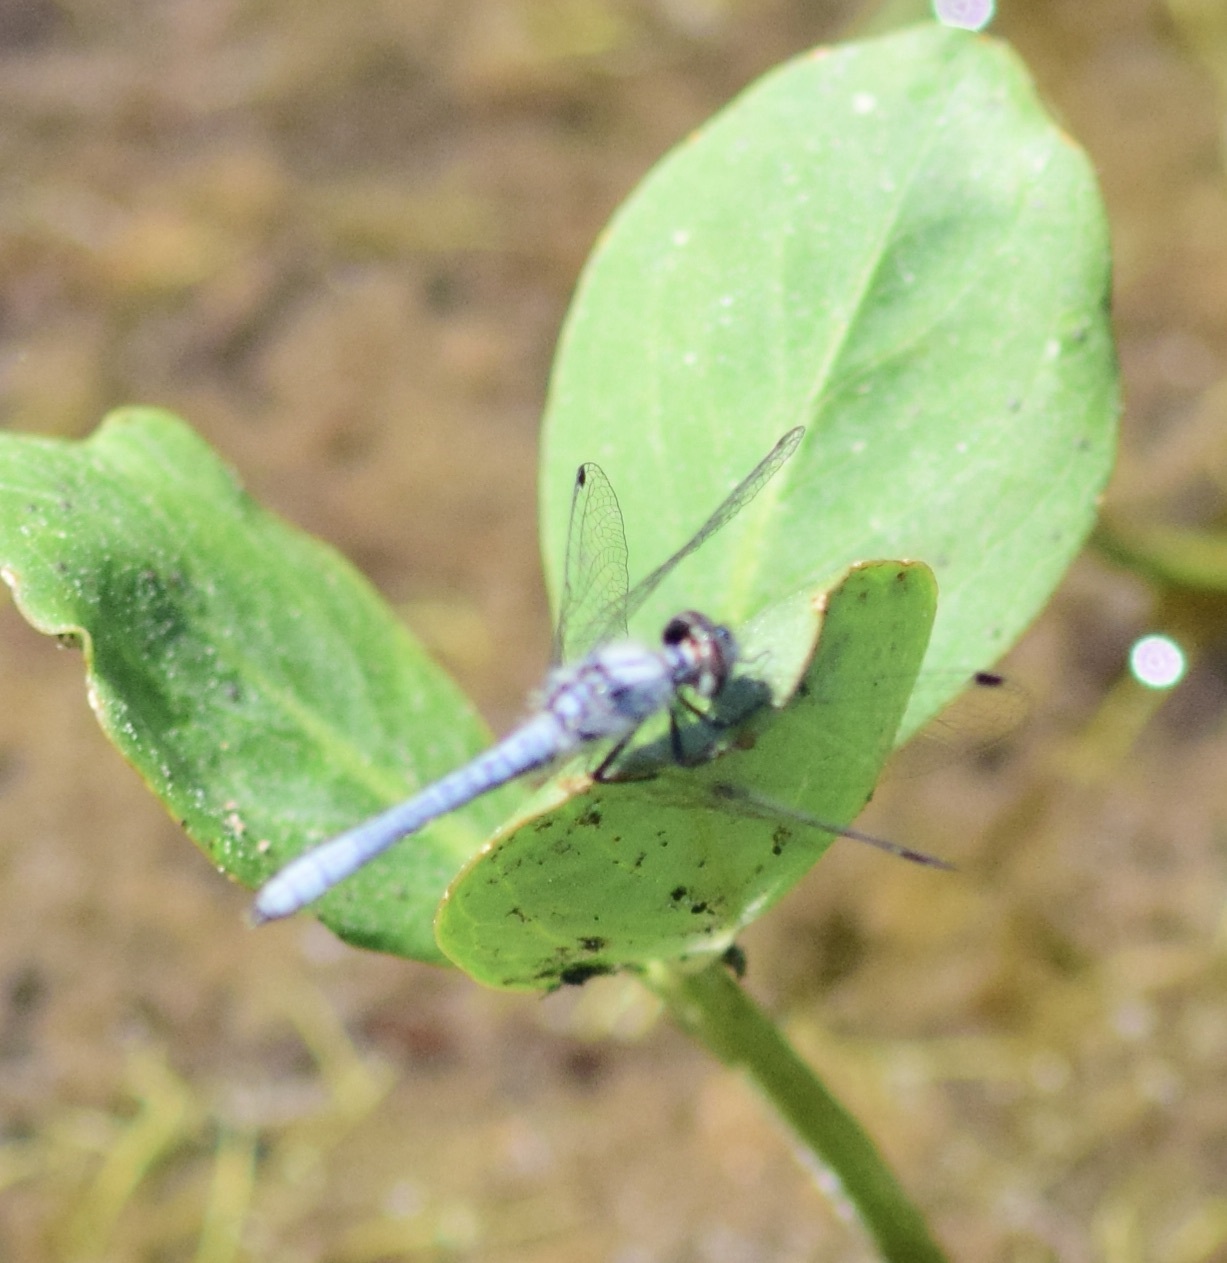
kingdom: Animalia
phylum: Arthropoda
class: Insecta
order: Odonata
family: Libellulidae
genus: Nannothemis
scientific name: Nannothemis bella
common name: Elfin skimmer
